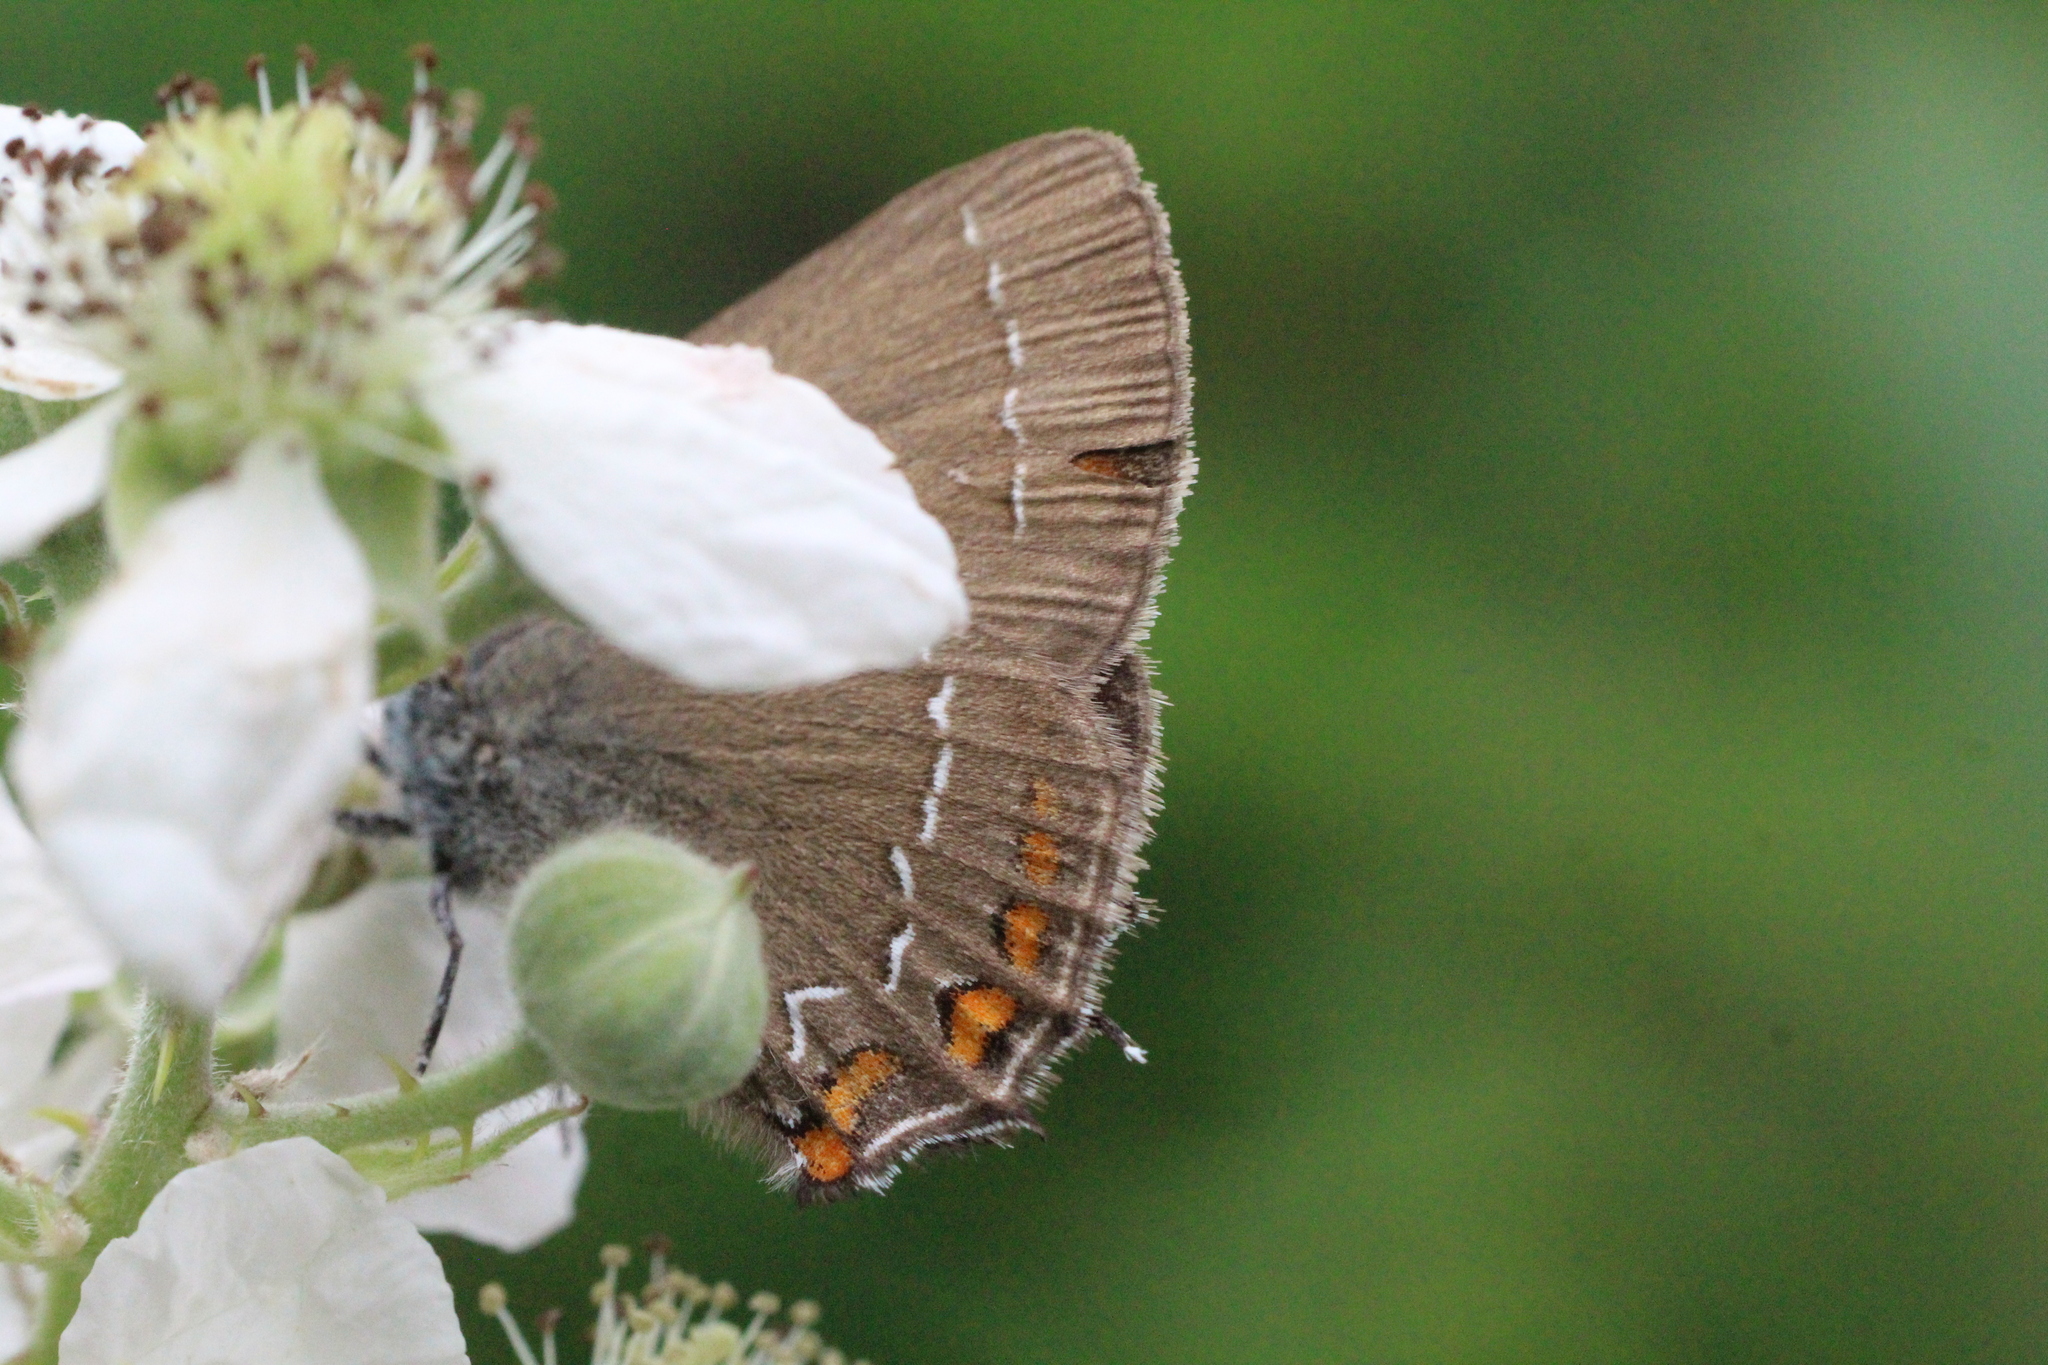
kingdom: Animalia
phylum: Arthropoda
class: Insecta
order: Lepidoptera
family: Lycaenidae
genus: Nordmannia
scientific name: Nordmannia ilicis
